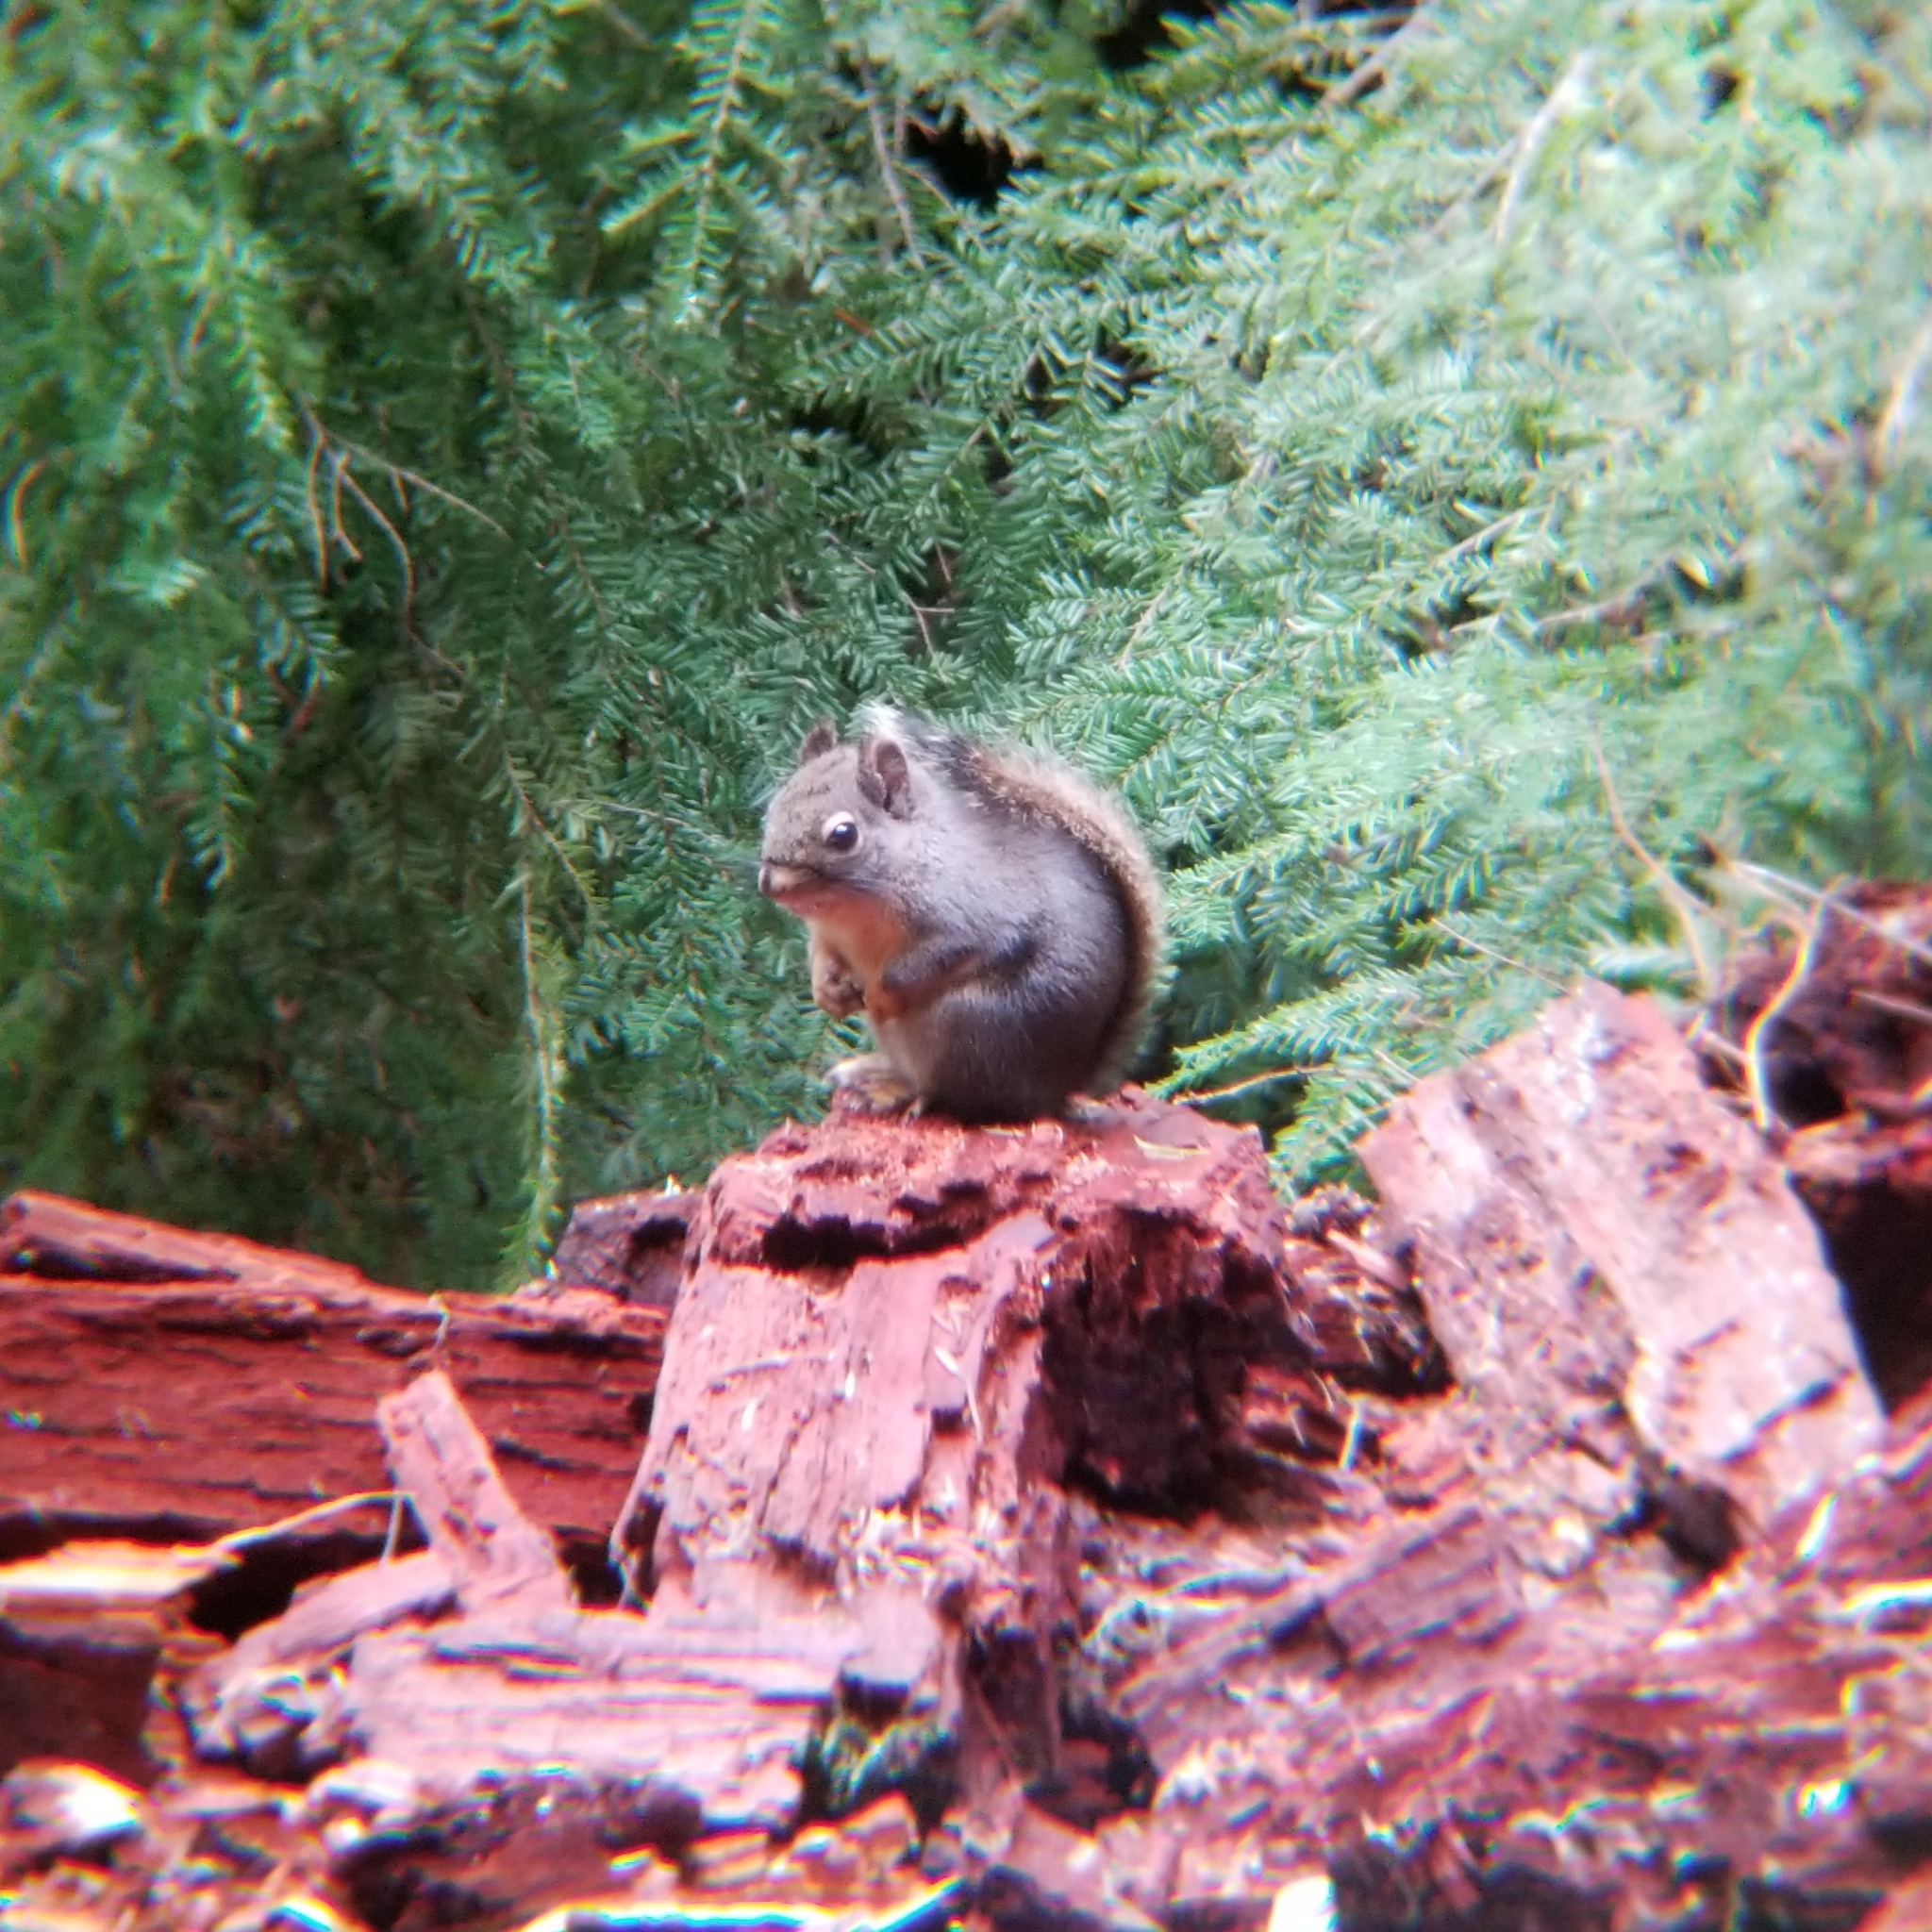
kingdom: Animalia
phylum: Chordata
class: Mammalia
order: Rodentia
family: Sciuridae
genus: Tamiasciurus
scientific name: Tamiasciurus douglasii
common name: Douglas's squirrel
